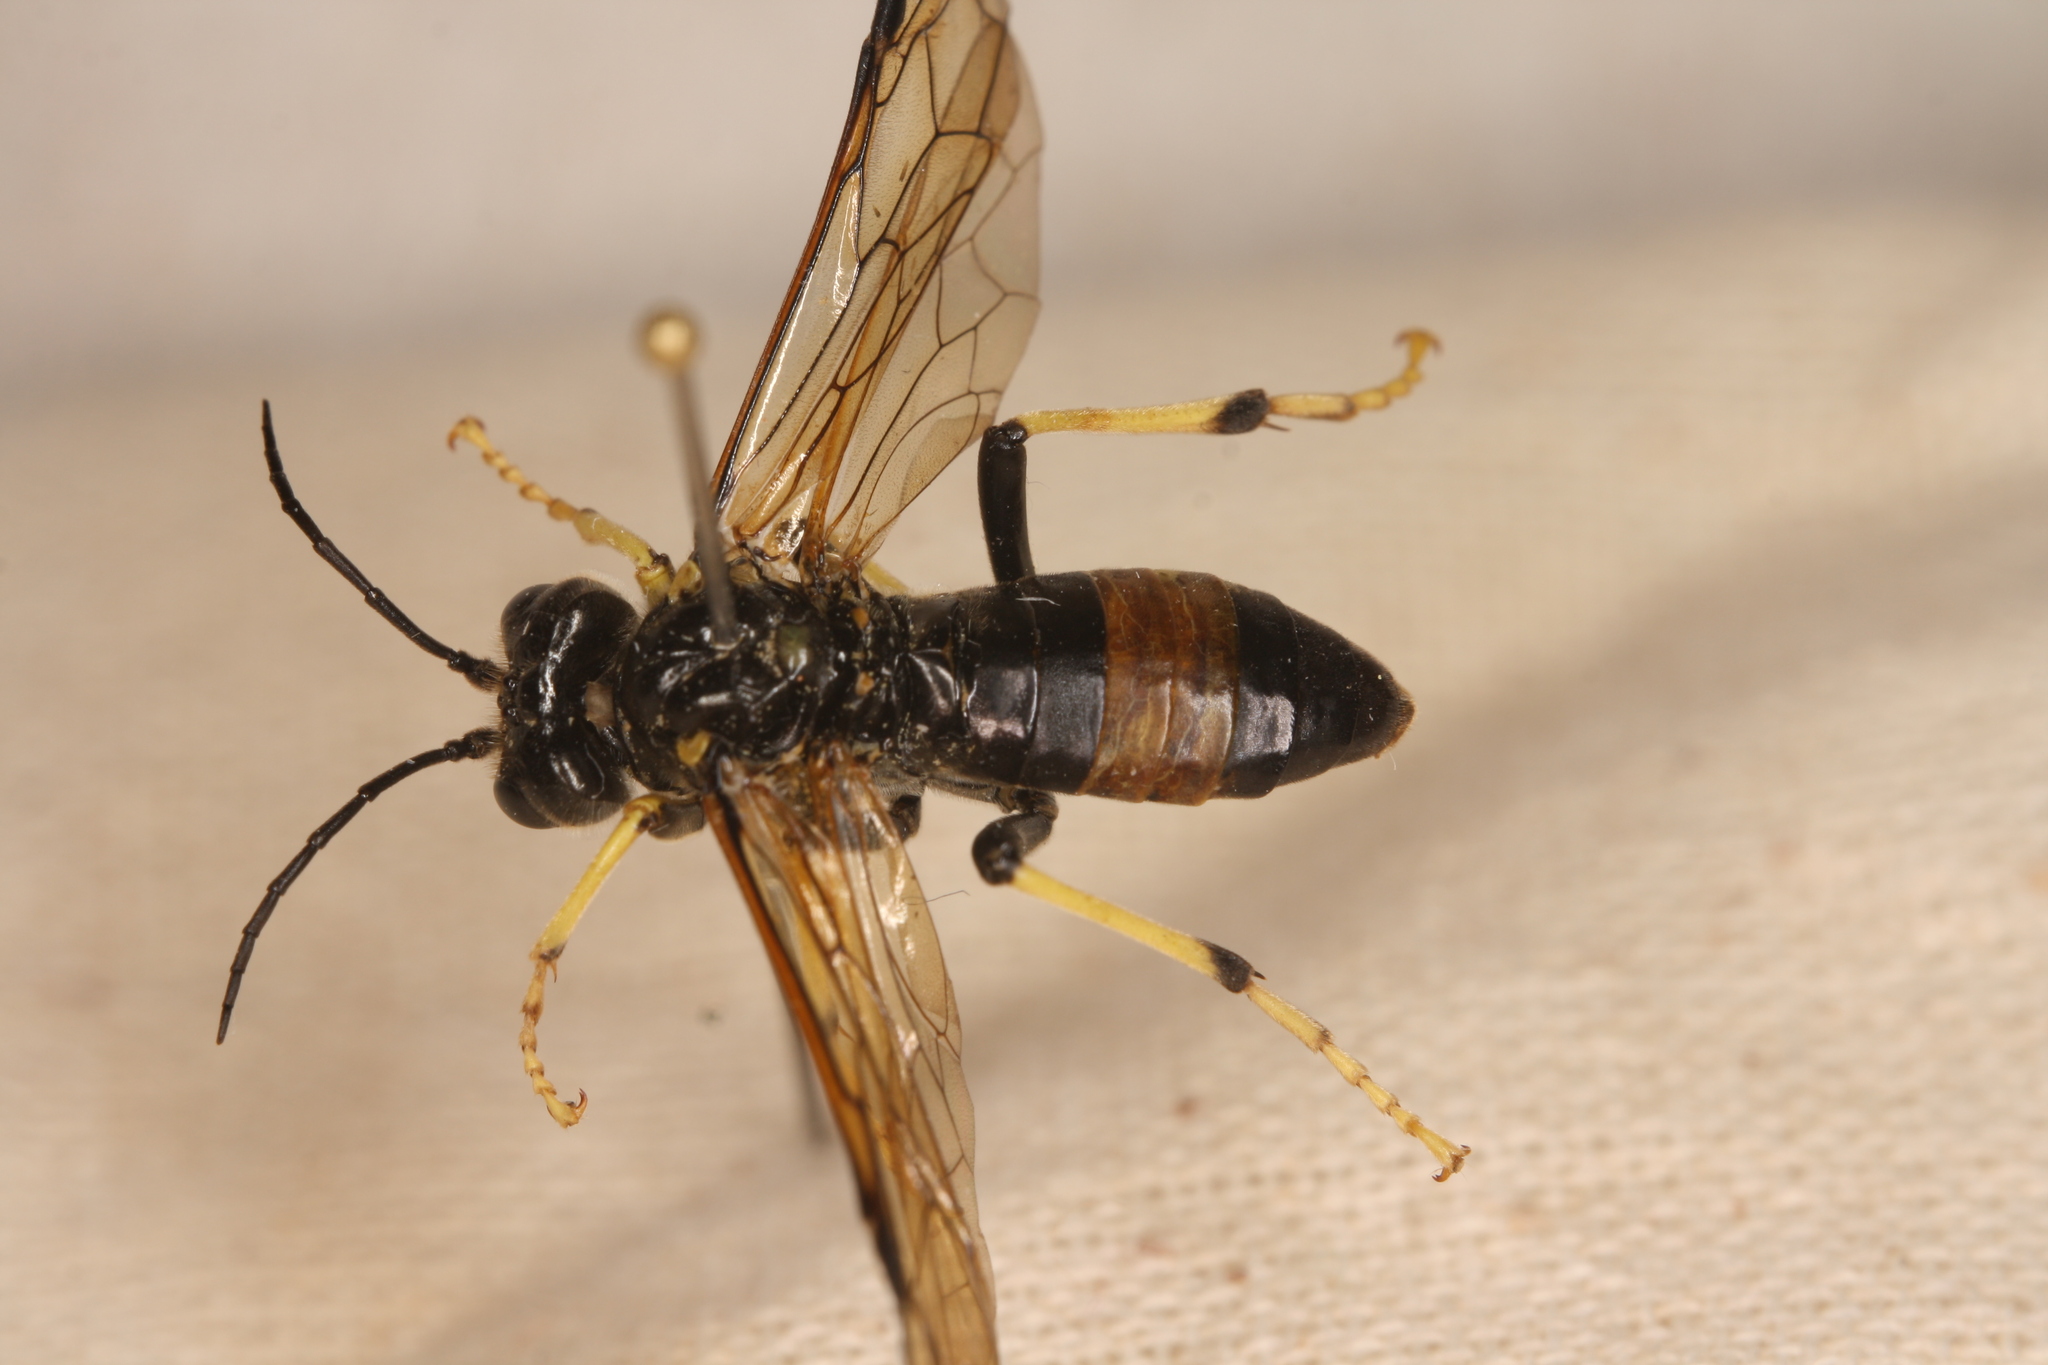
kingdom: Animalia
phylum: Arthropoda
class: Insecta
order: Hymenoptera
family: Tenthredinidae
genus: Tenthredo
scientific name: Tenthredo maculata
